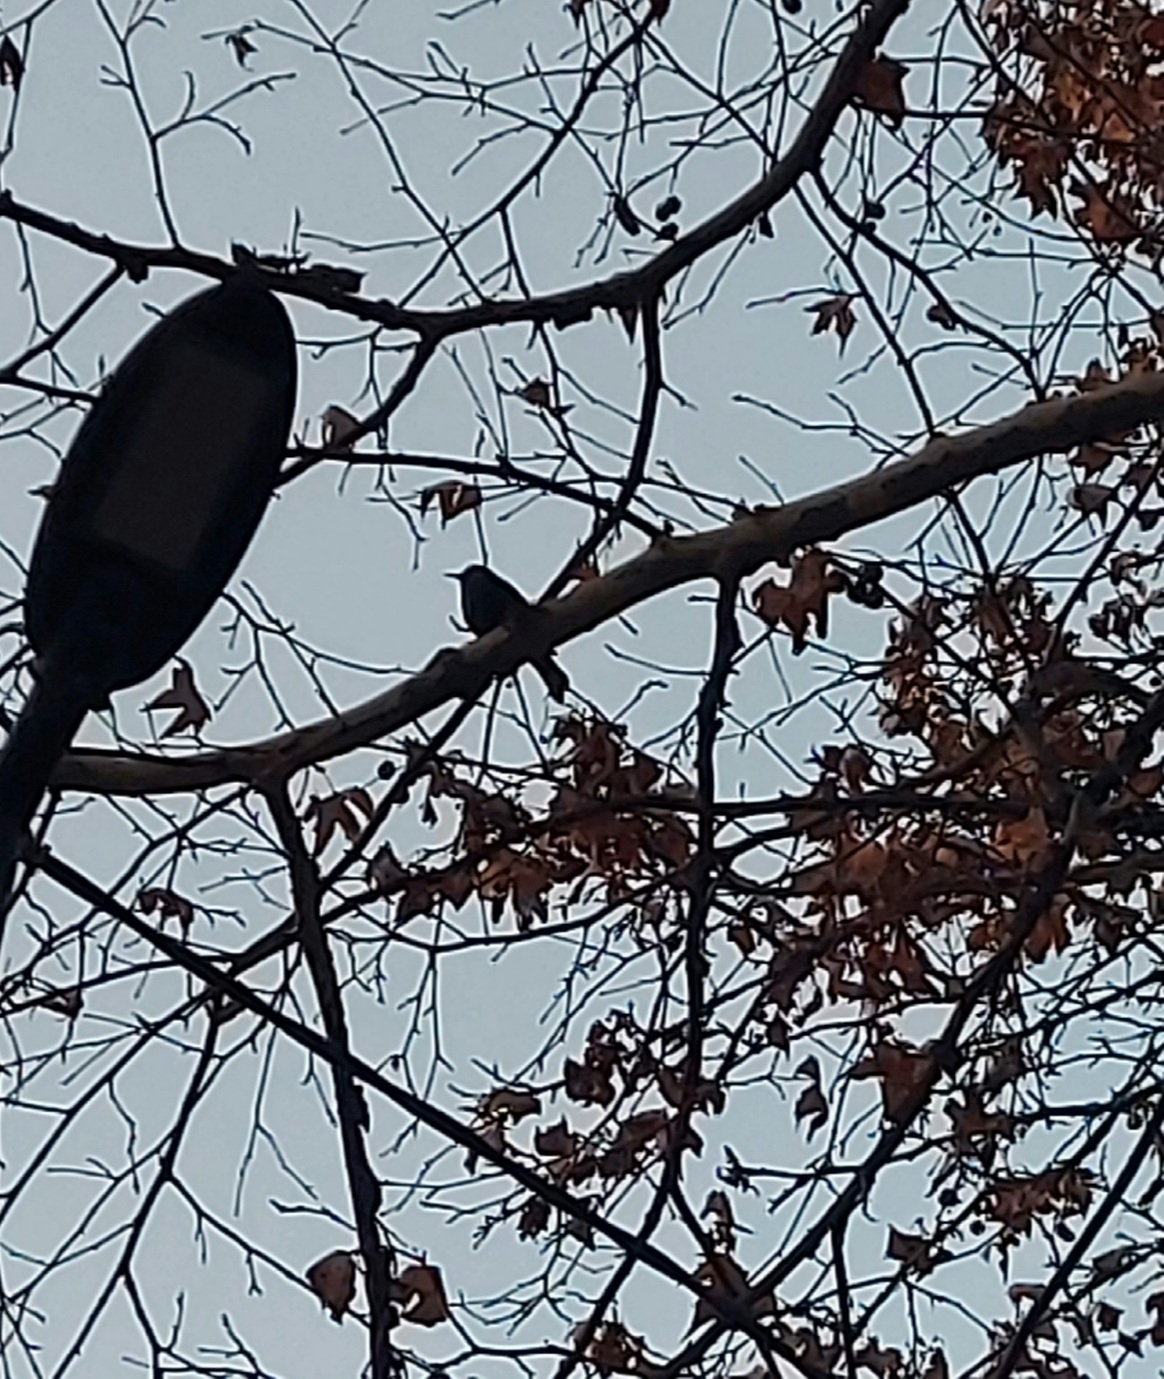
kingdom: Animalia
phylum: Chordata
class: Aves
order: Passeriformes
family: Turdidae
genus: Turdus
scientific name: Turdus merula
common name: Common blackbird
